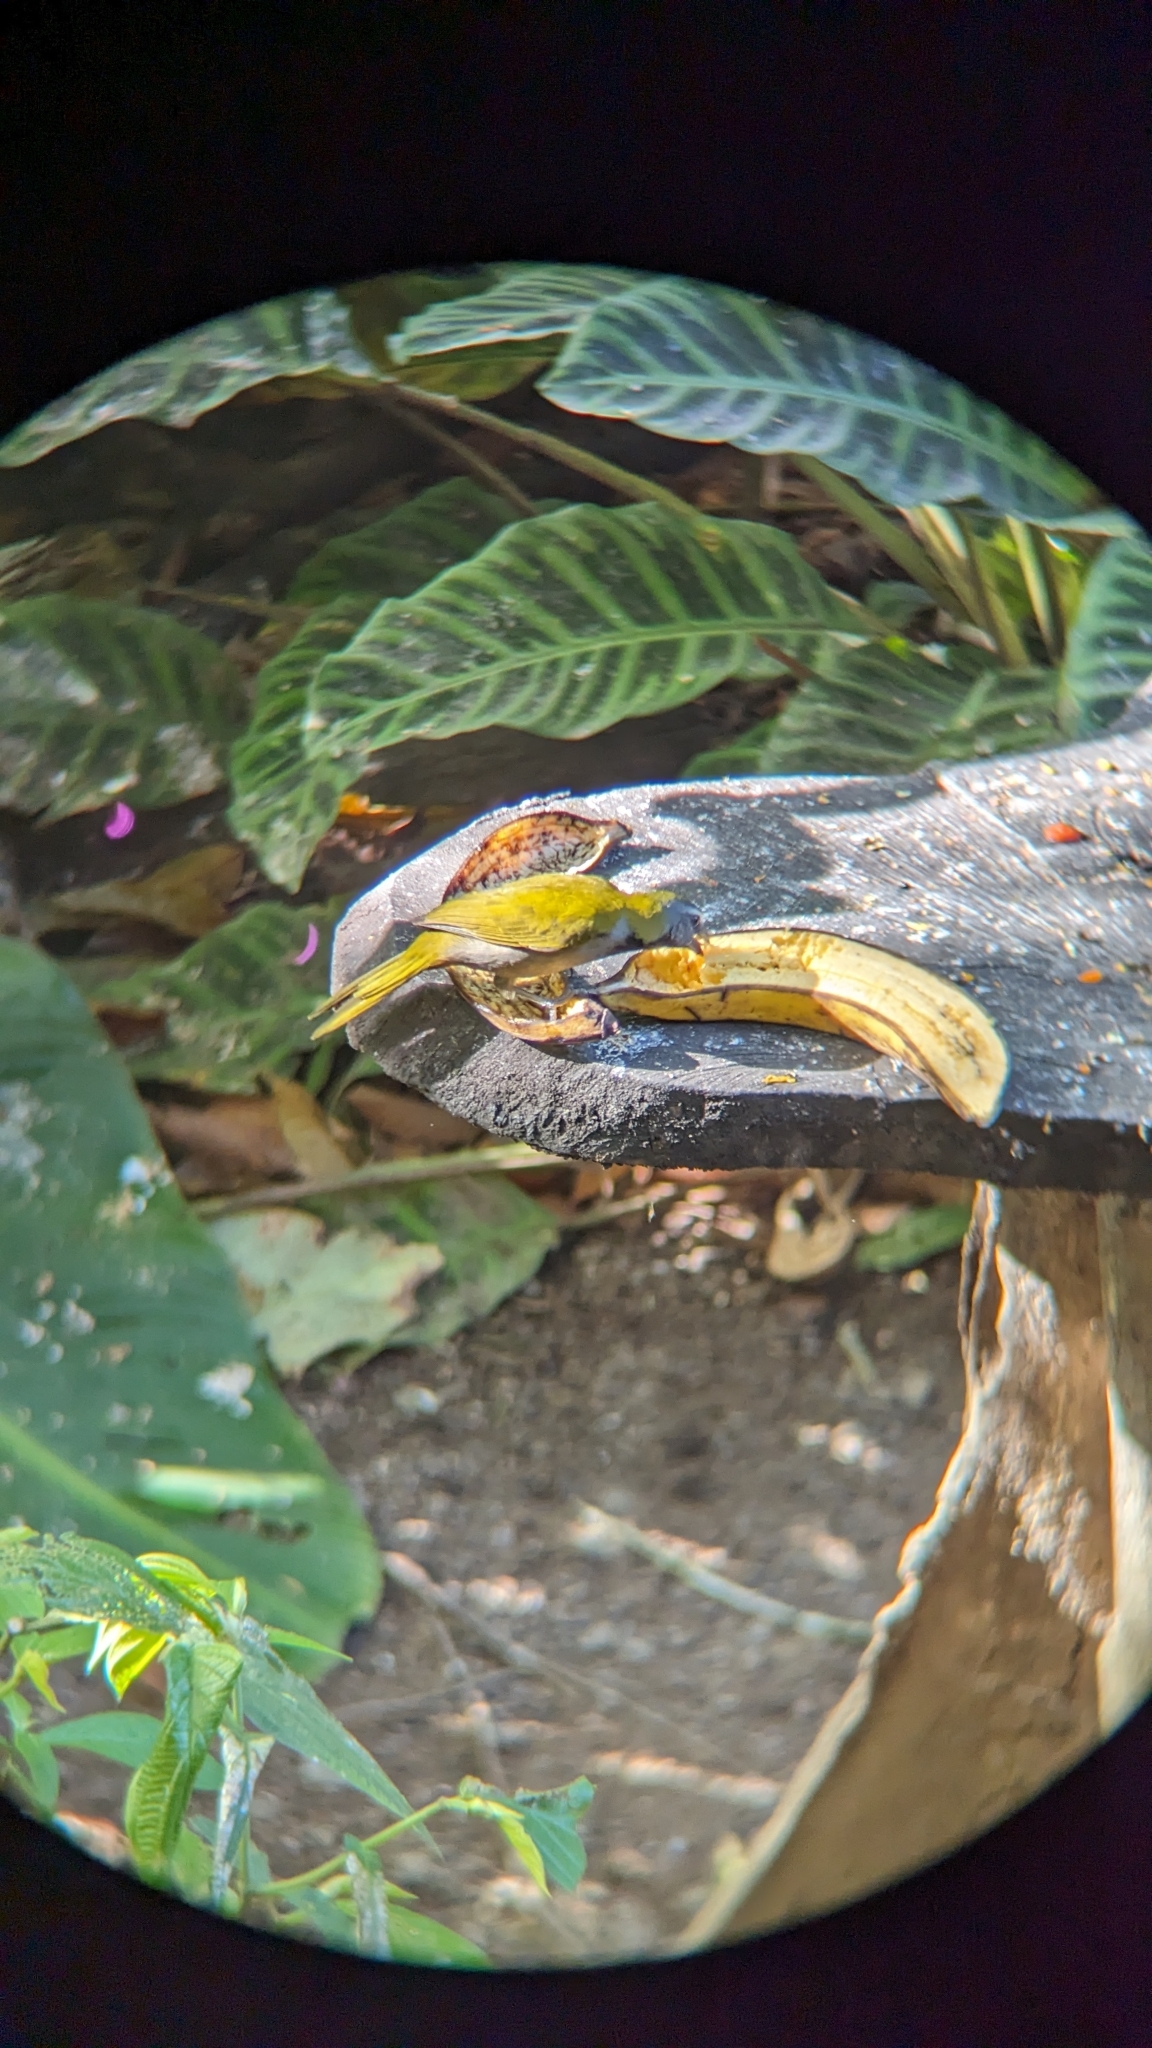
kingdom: Animalia
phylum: Chordata
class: Aves
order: Passeriformes
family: Thraupidae
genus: Saltator
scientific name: Saltator maximus
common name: Buff-throated saltator
